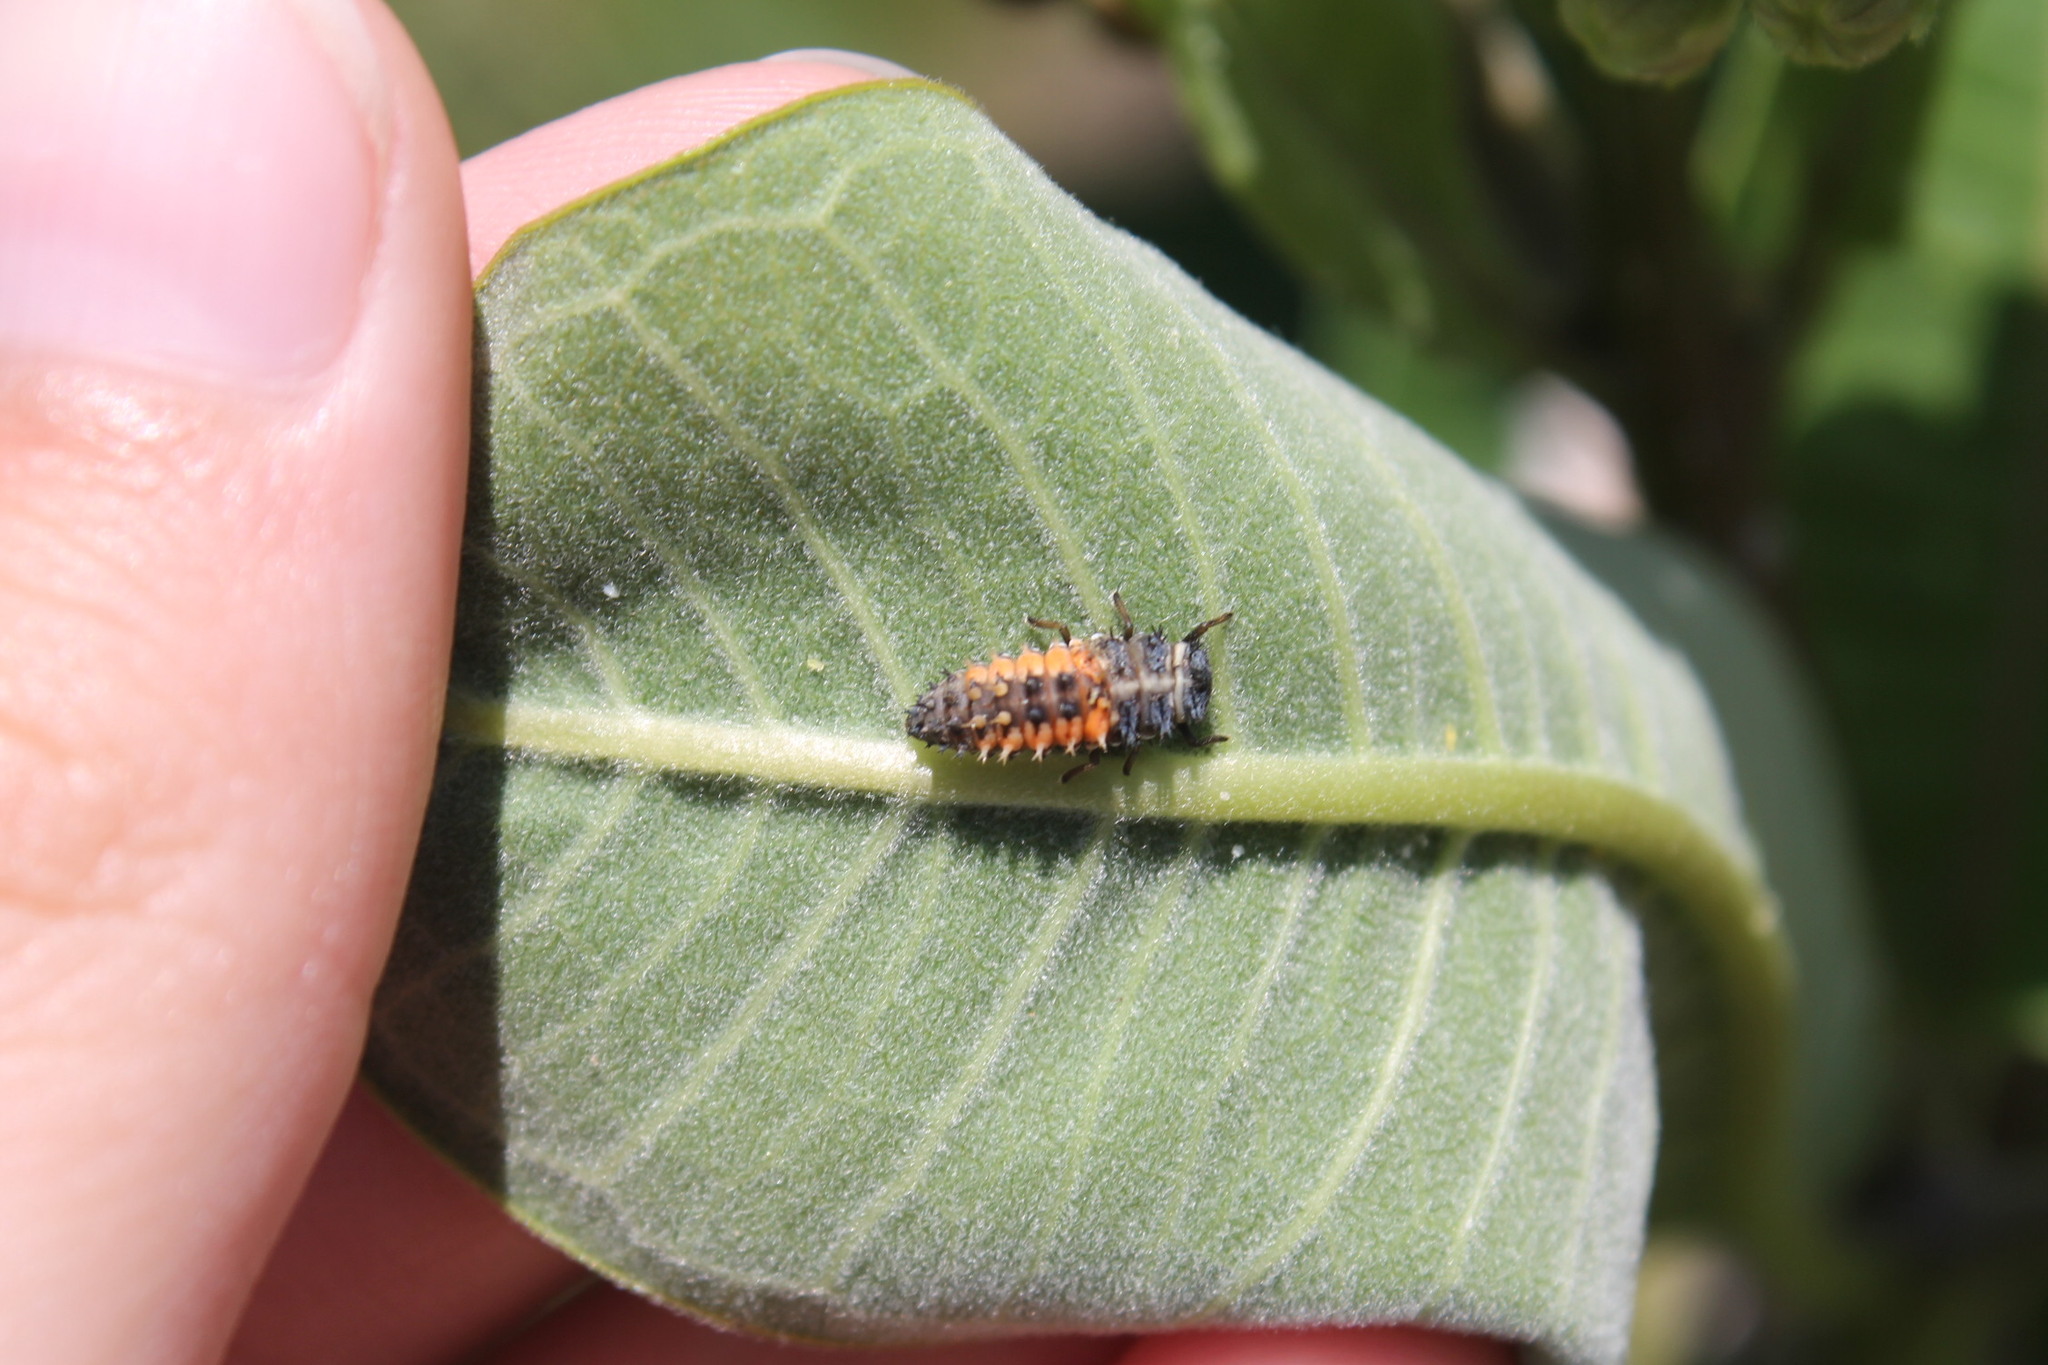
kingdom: Animalia
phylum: Arthropoda
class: Insecta
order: Coleoptera
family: Coccinellidae
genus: Harmonia
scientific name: Harmonia axyridis
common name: Harlequin ladybird
